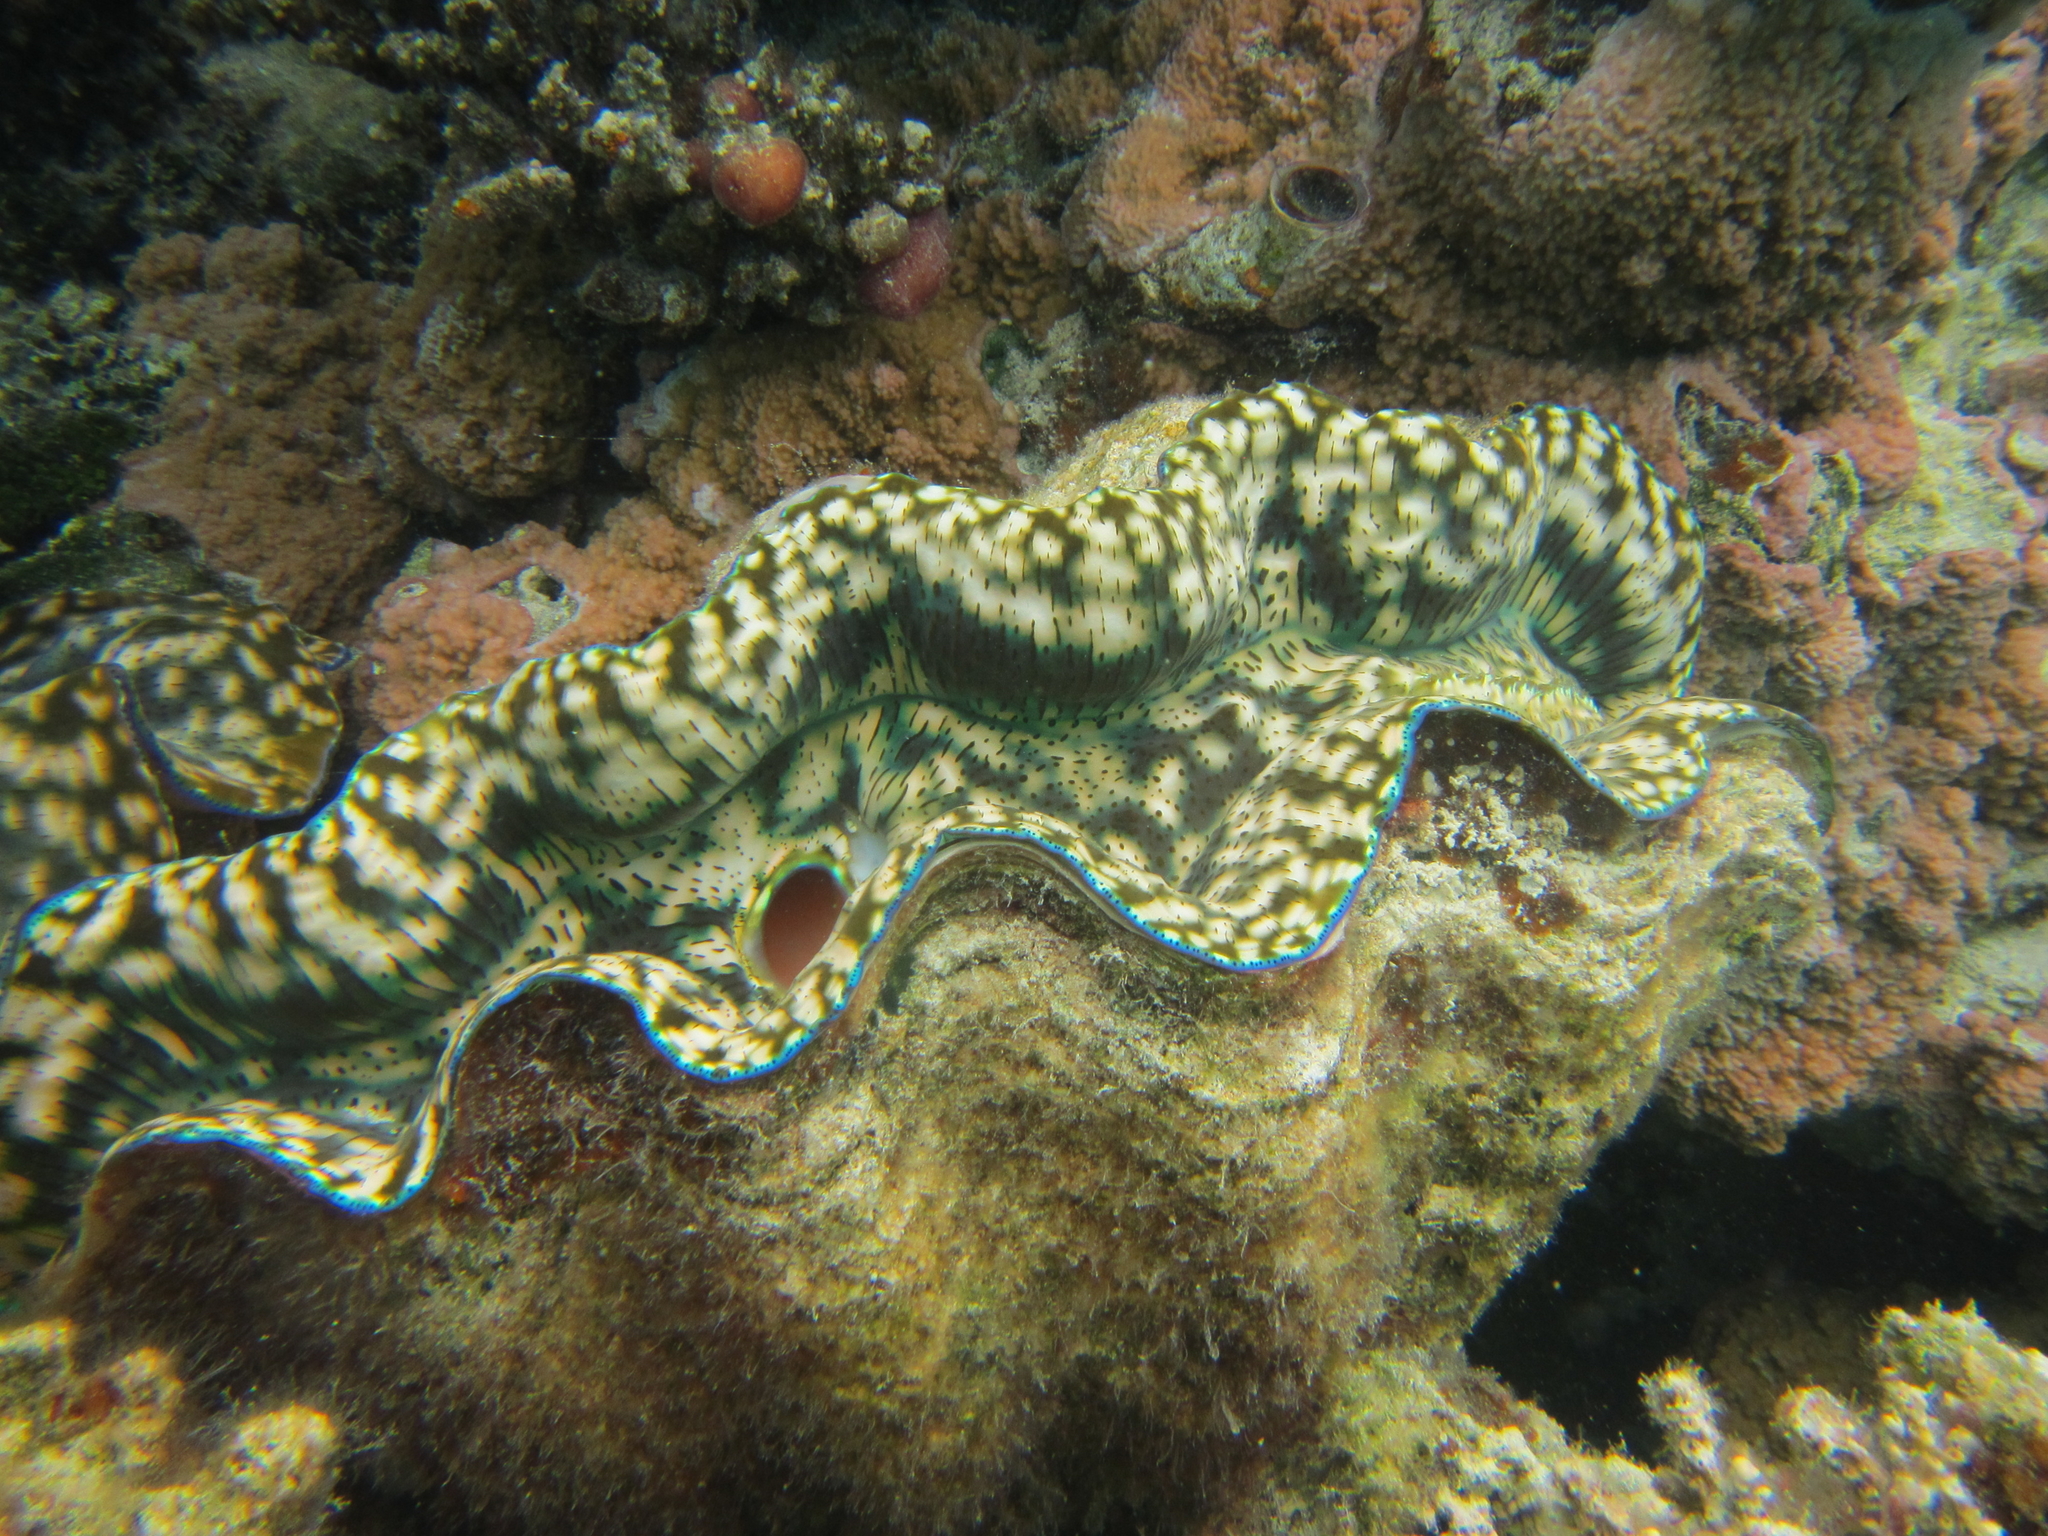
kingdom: Animalia
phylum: Mollusca
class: Bivalvia
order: Cardiida
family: Cardiidae
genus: Tridacna
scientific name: Tridacna derasa
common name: Southern giant clam
